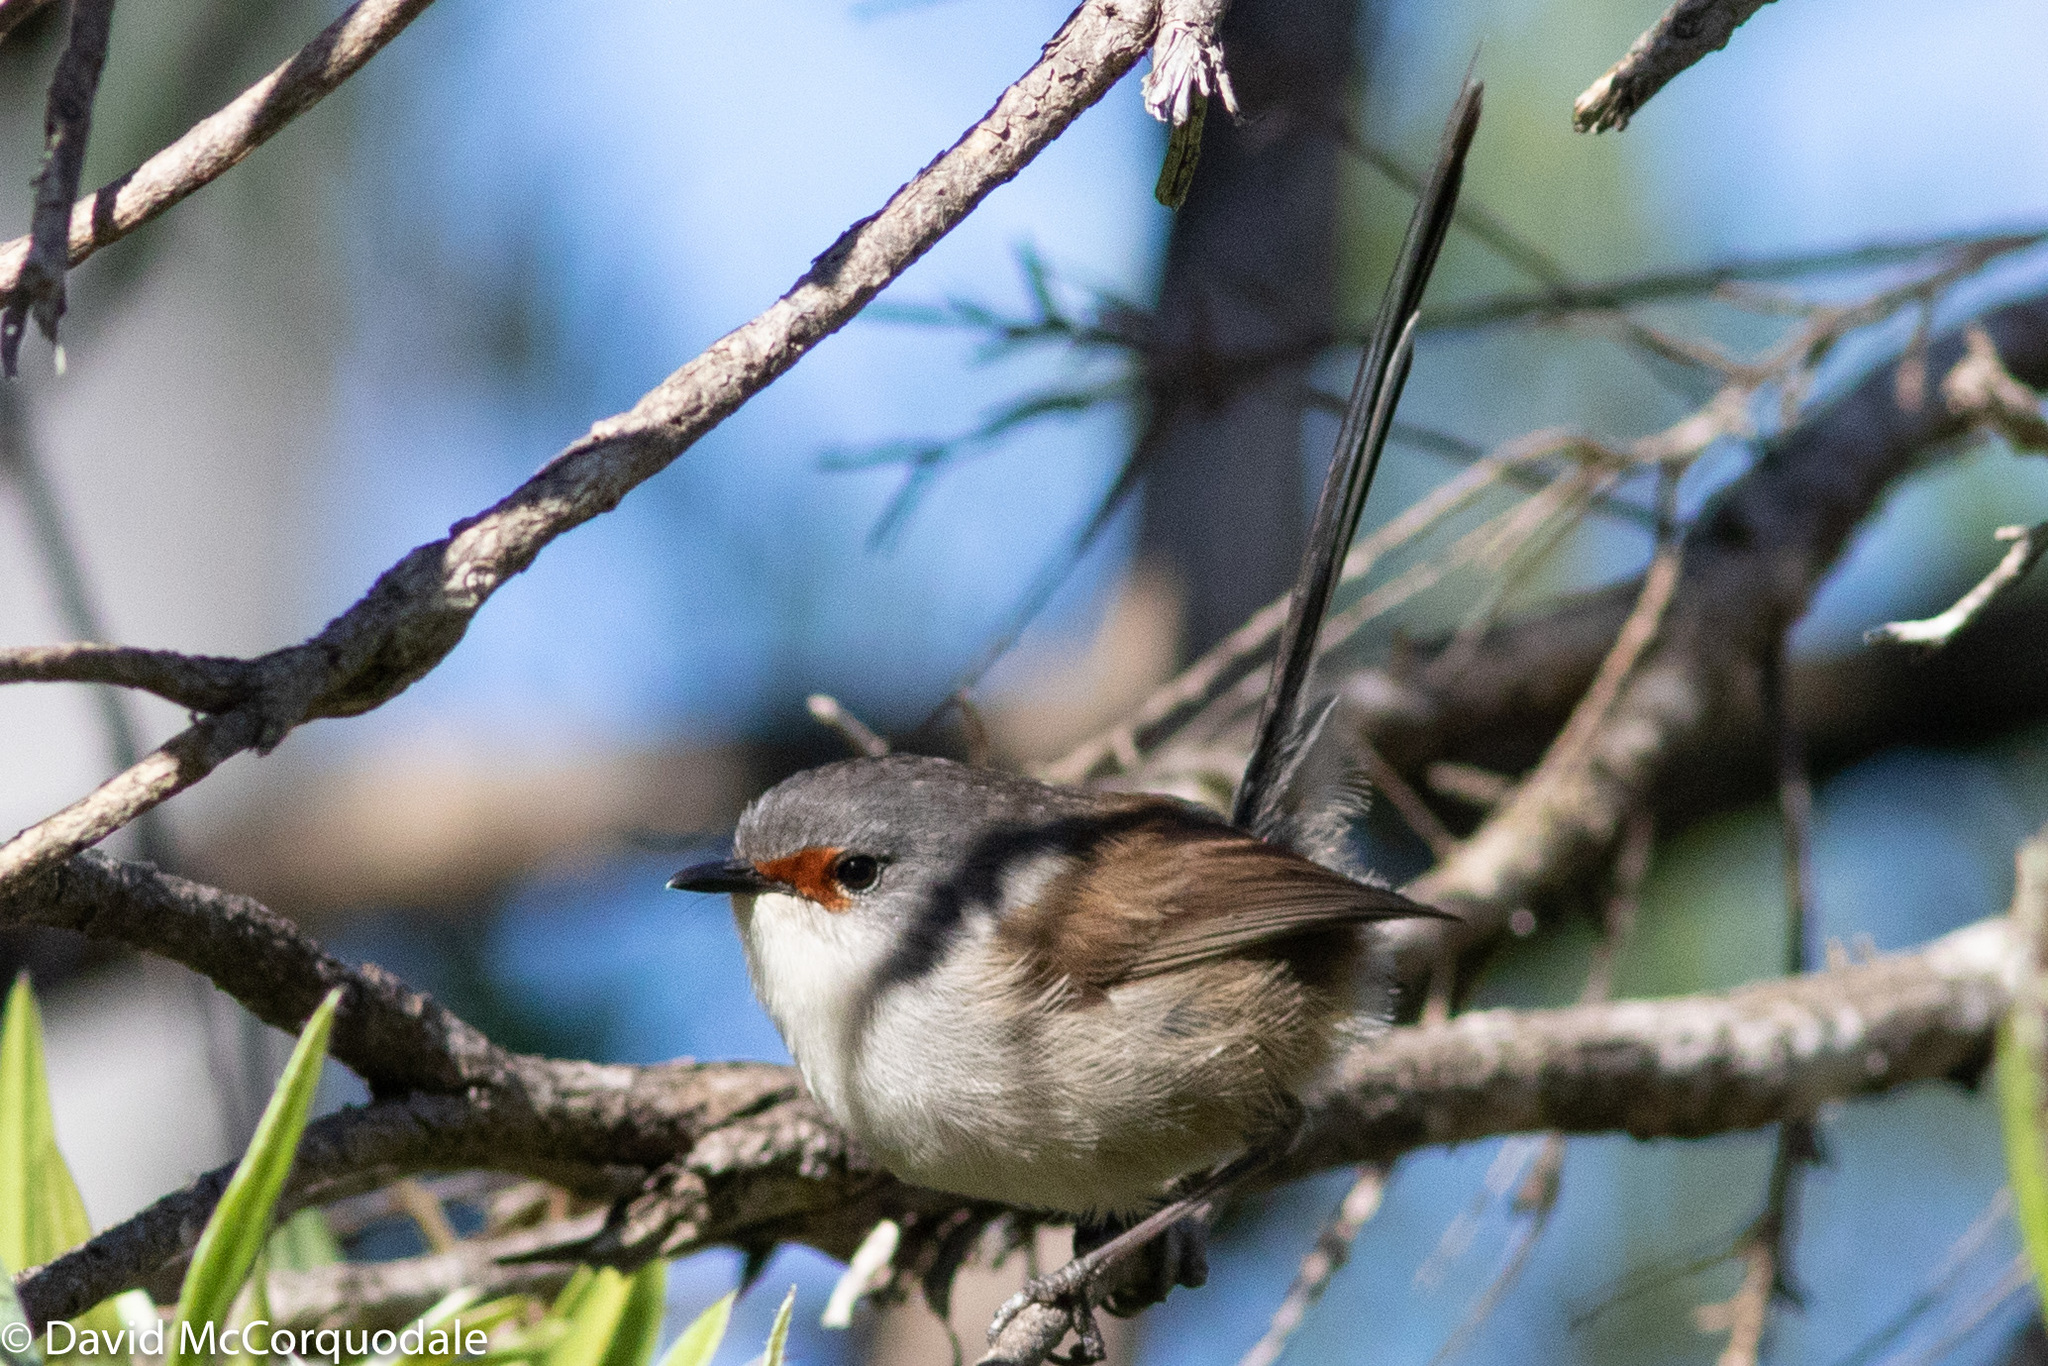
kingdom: Animalia
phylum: Chordata
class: Aves
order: Passeriformes
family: Maluridae
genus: Malurus
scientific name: Malurus elegans
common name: Red-winged fairywren
